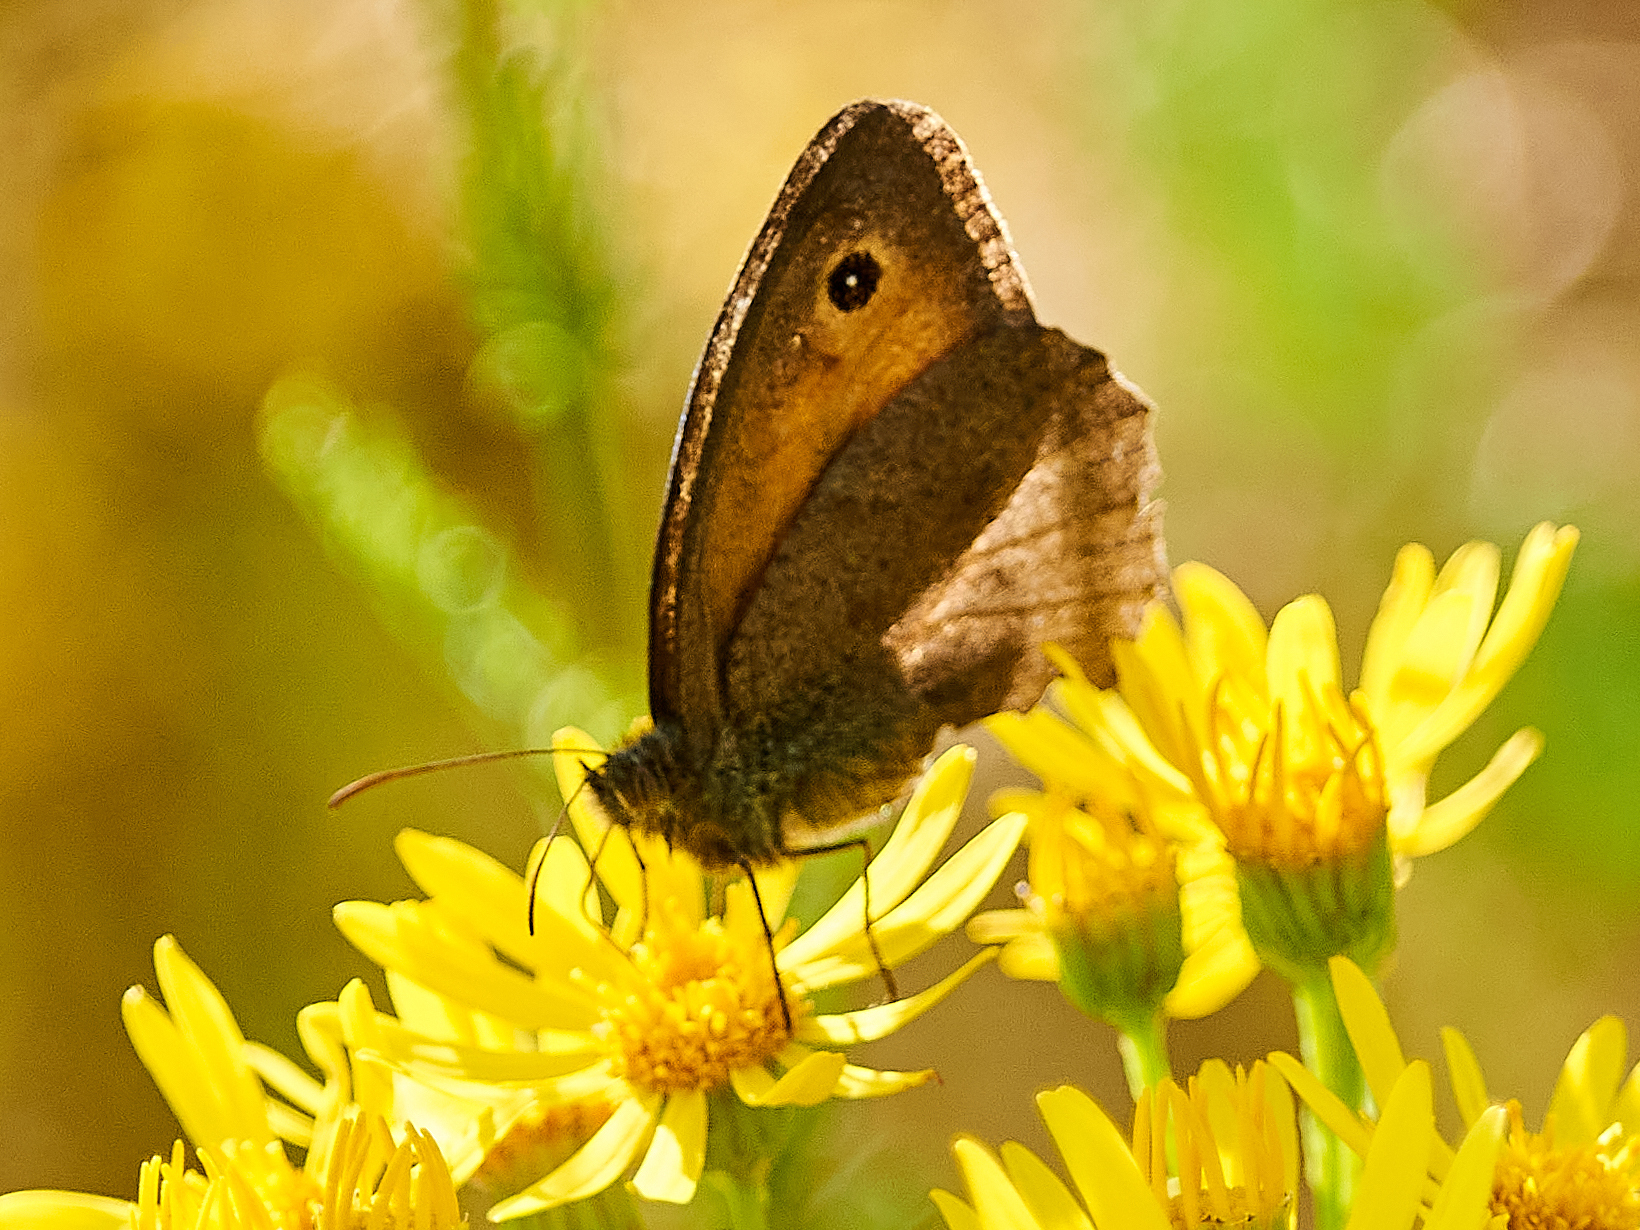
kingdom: Animalia
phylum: Arthropoda
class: Insecta
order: Lepidoptera
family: Nymphalidae
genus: Hyponephele
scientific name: Hyponephele lycaon
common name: Dusky meadow brown
